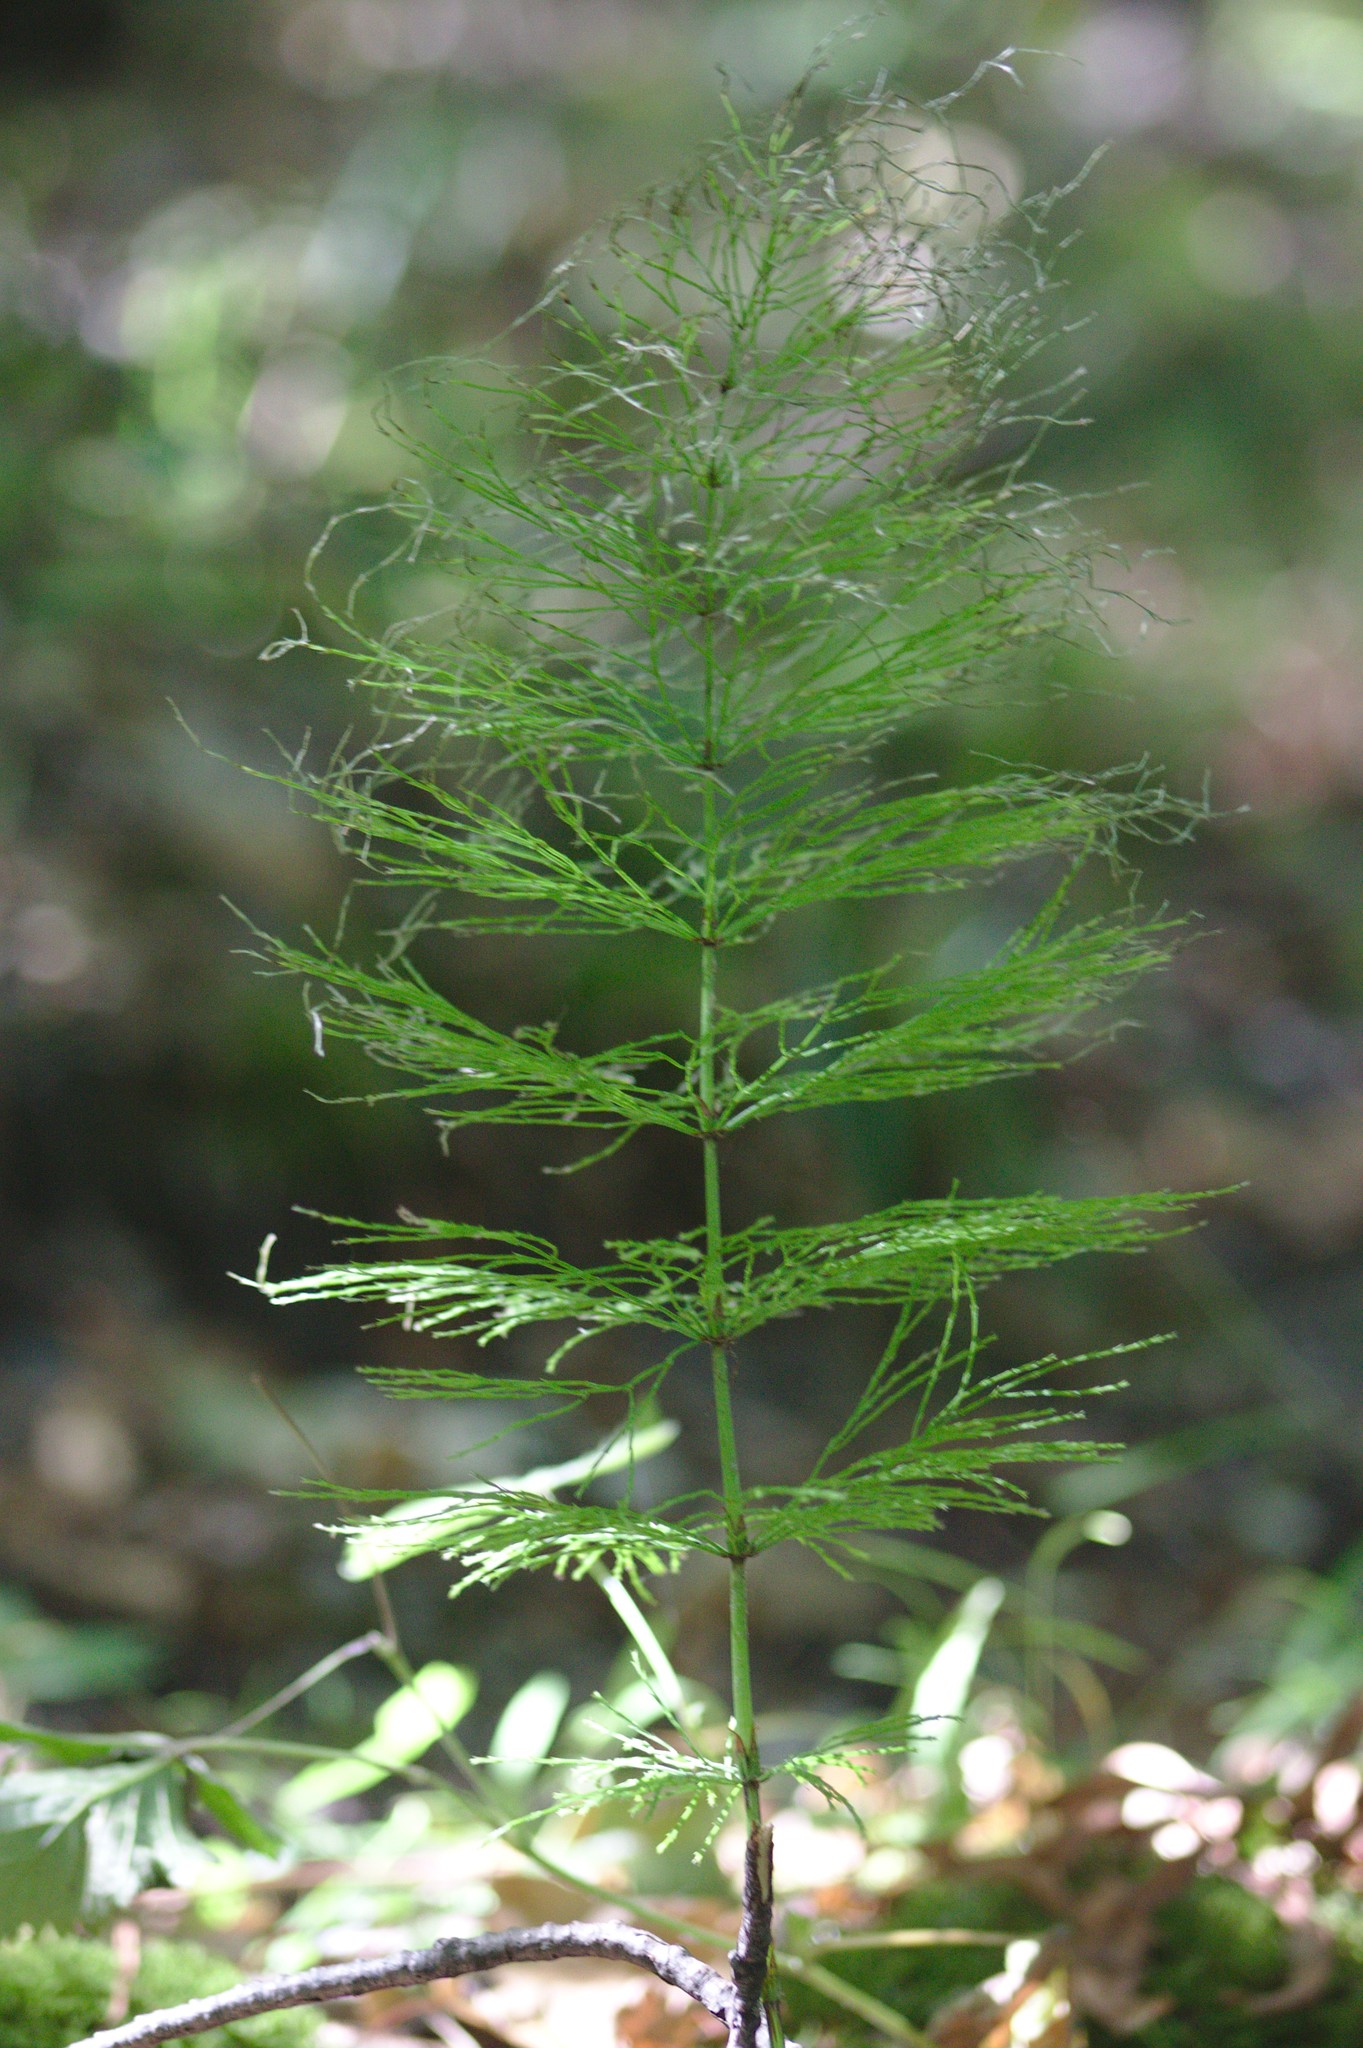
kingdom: Plantae
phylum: Tracheophyta
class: Polypodiopsida
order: Equisetales
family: Equisetaceae
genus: Equisetum
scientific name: Equisetum sylvaticum
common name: Wood horsetail
